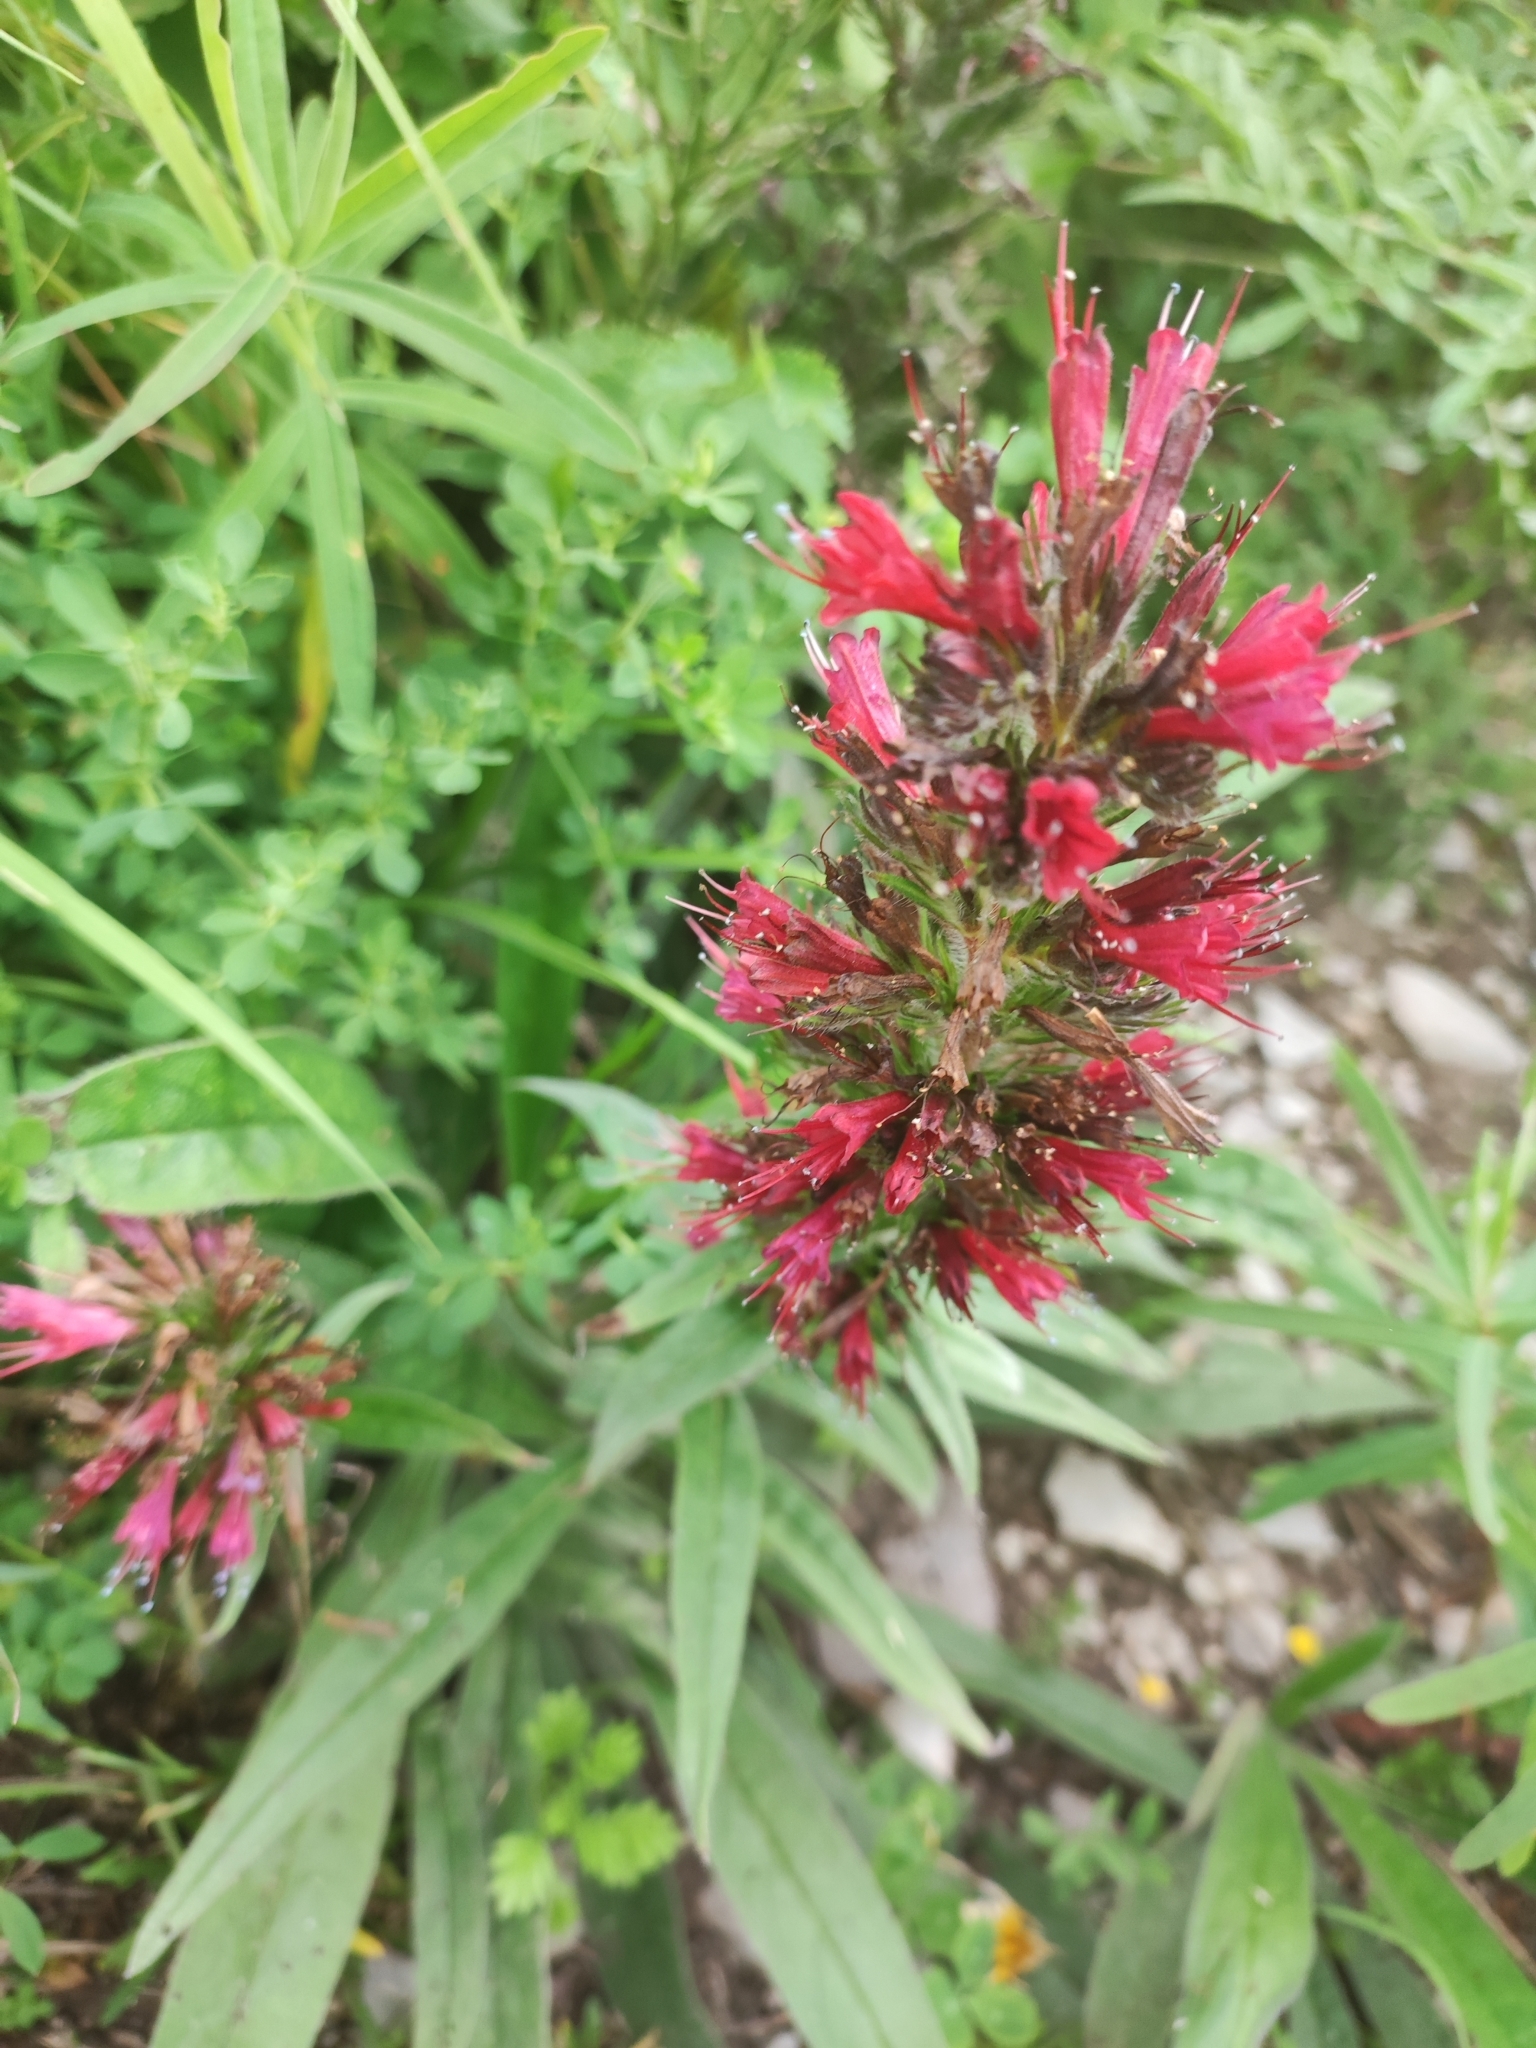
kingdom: Plantae
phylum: Tracheophyta
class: Magnoliopsida
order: Boraginales
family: Boraginaceae
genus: Pontechium
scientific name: Pontechium maculatum
